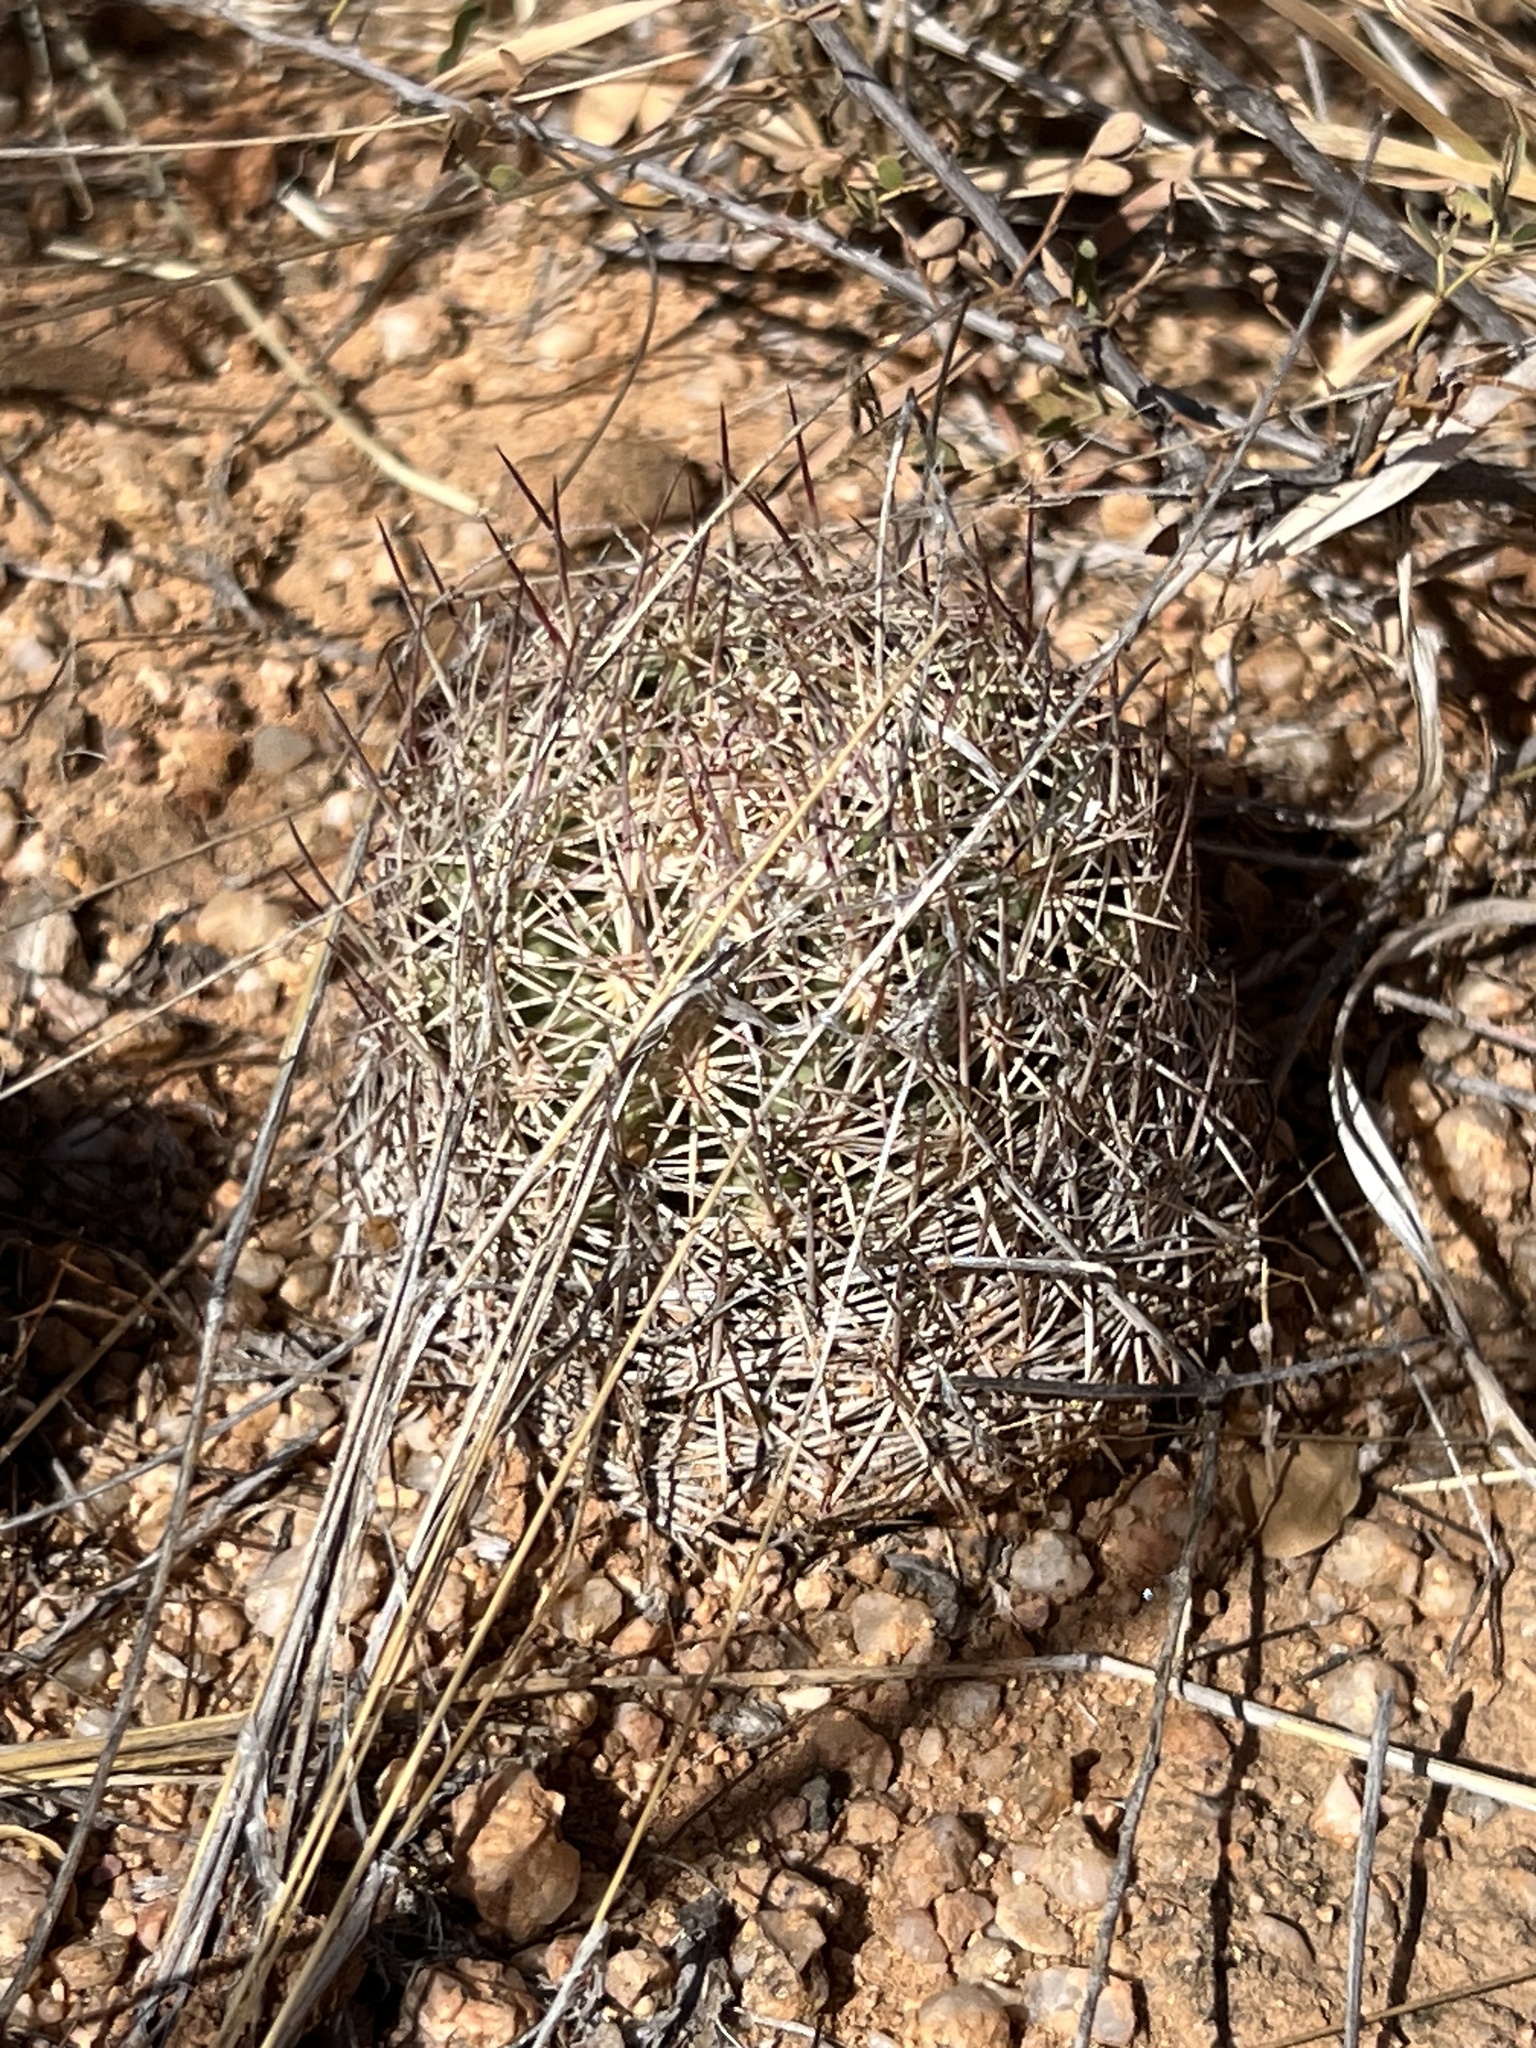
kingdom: Plantae
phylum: Tracheophyta
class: Magnoliopsida
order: Caryophyllales
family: Cactaceae
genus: Sclerocactus
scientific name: Sclerocactus johnsonii
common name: Eight-spine fishhook cactus
